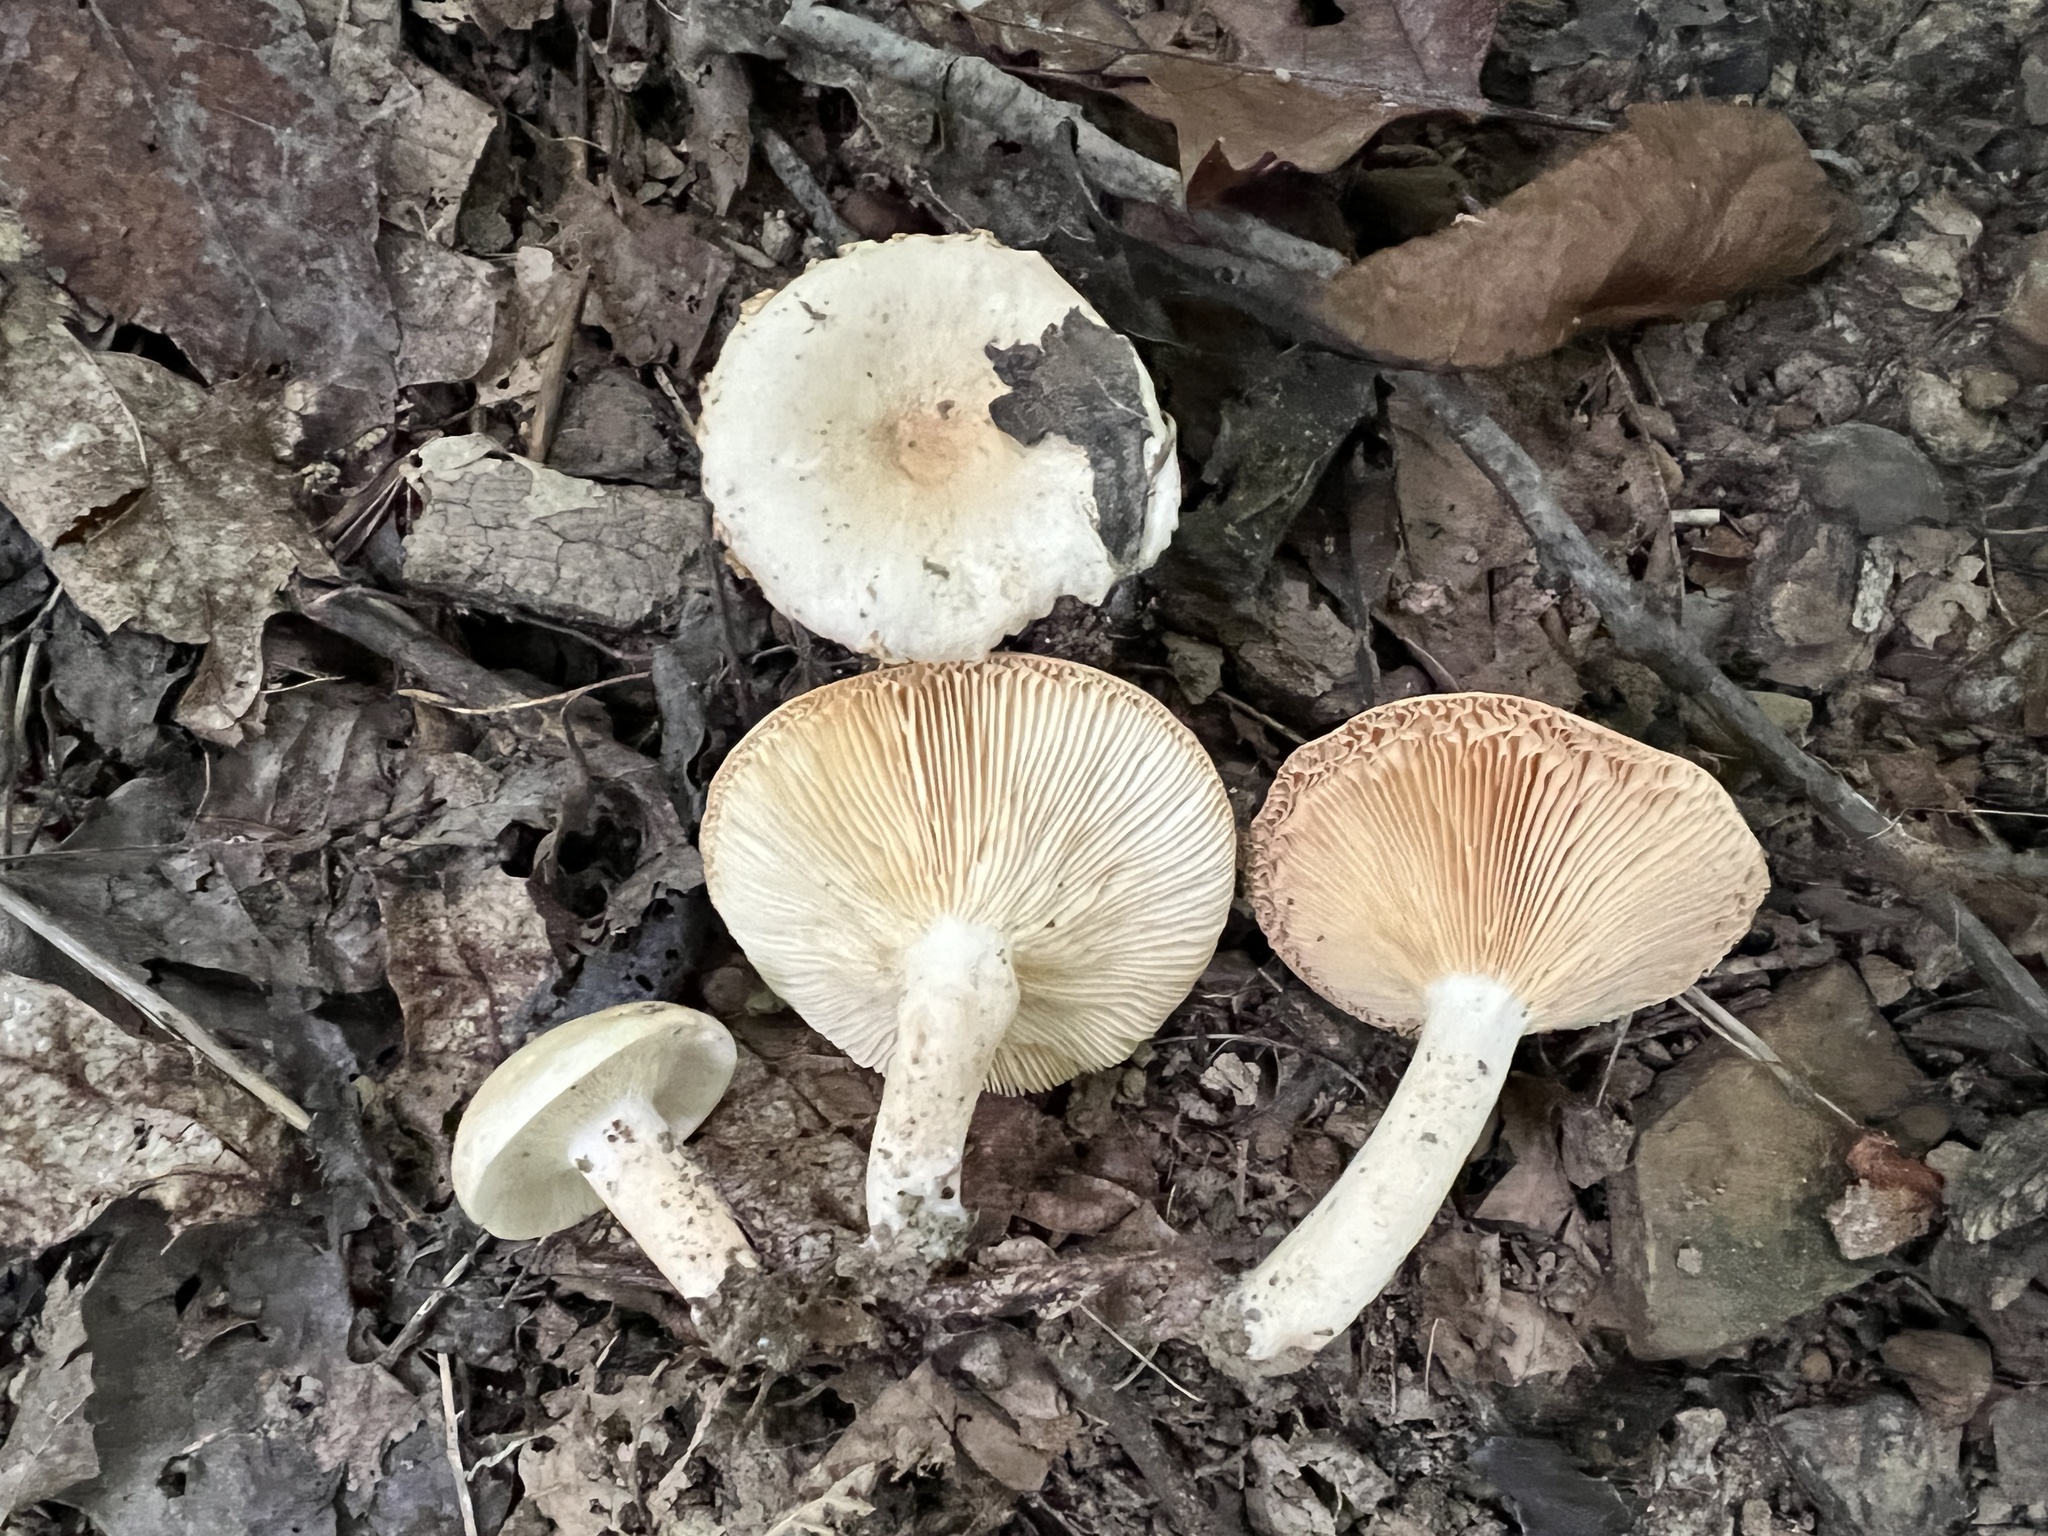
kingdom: Fungi
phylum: Basidiomycota
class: Agaricomycetes
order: Russulales
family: Russulaceae
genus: Lactarius
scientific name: Lactarius fumosus
